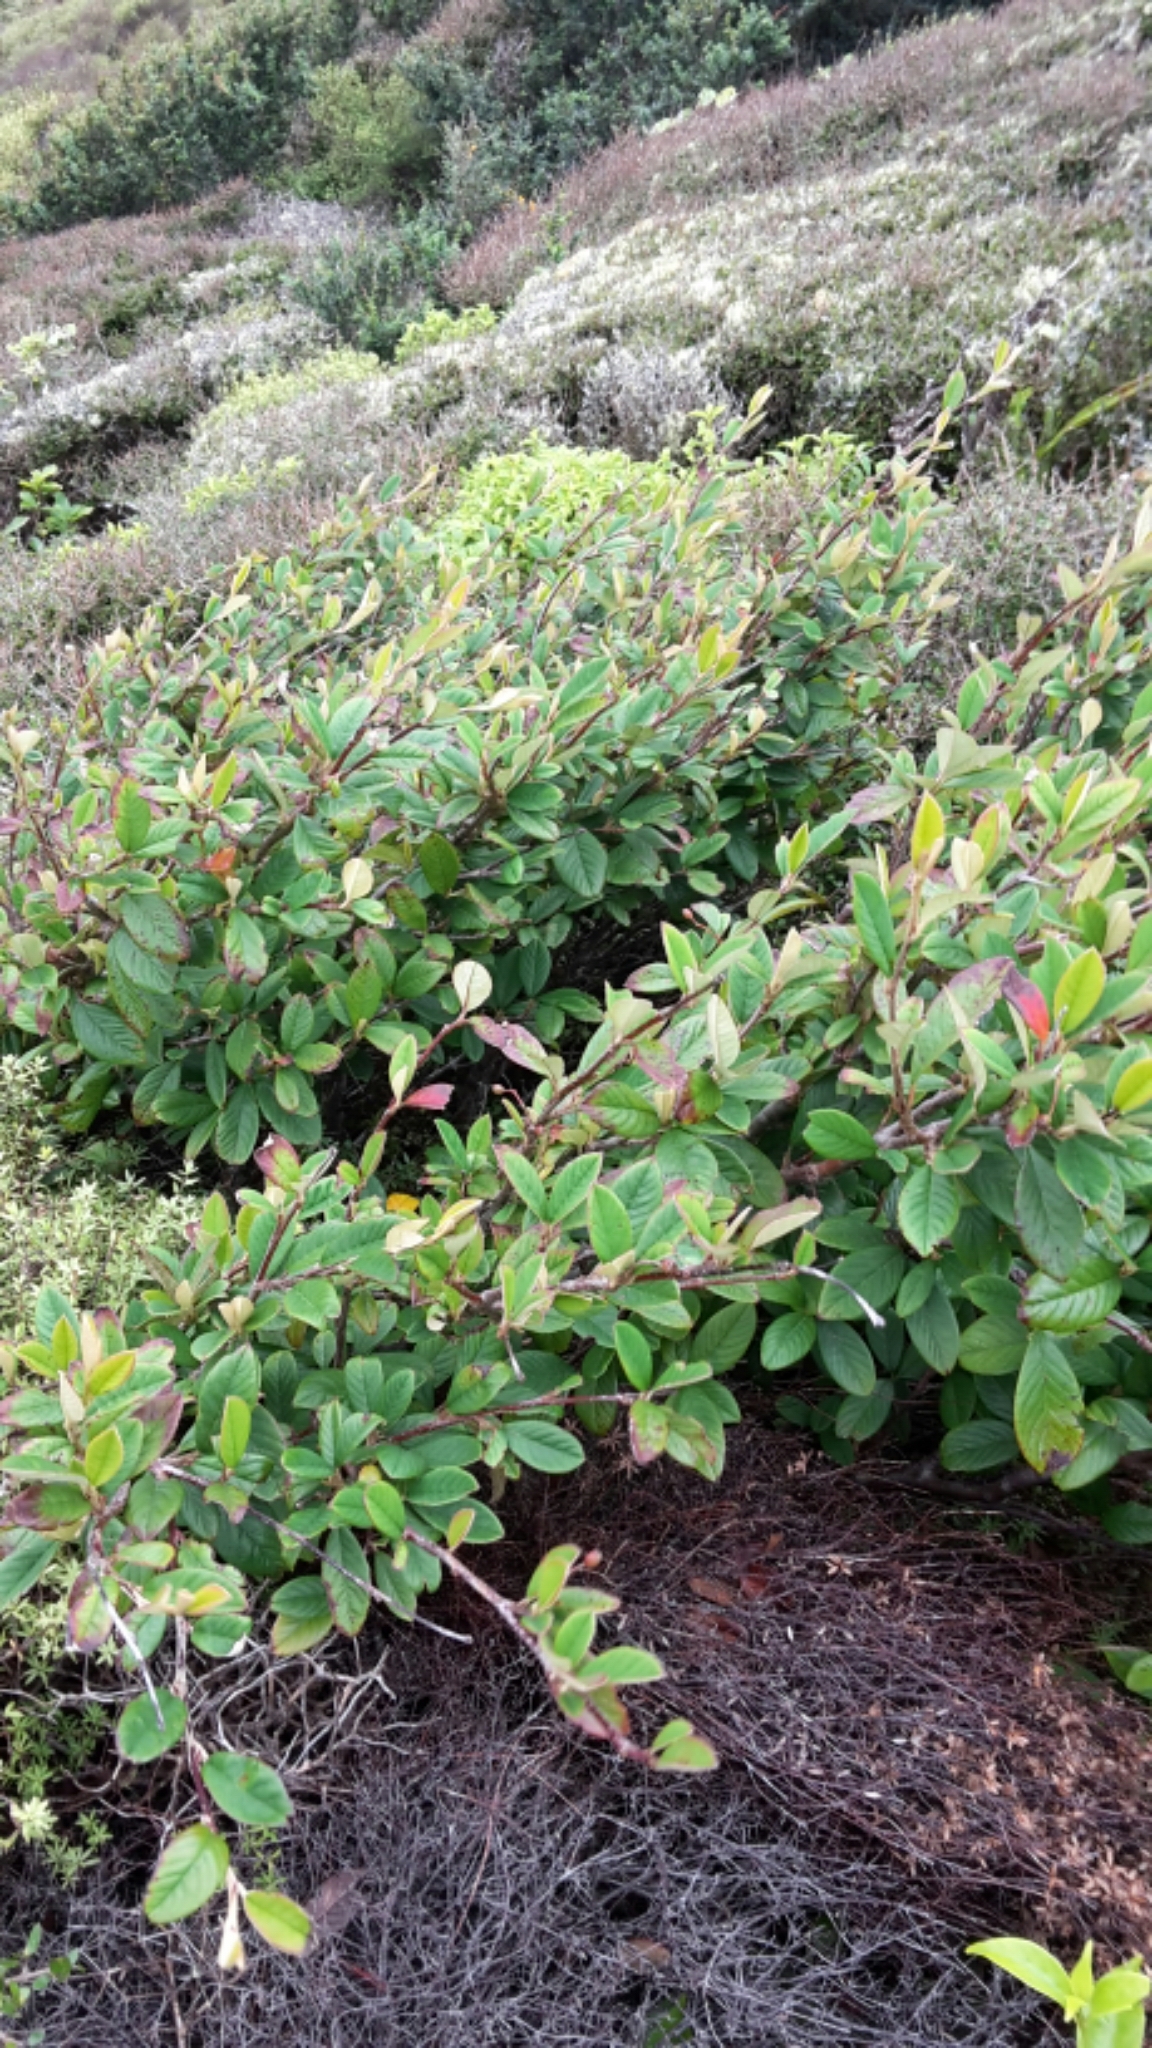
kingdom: Plantae
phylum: Tracheophyta
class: Magnoliopsida
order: Rosales
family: Rosaceae
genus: Cotoneaster
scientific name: Cotoneaster coriaceus
